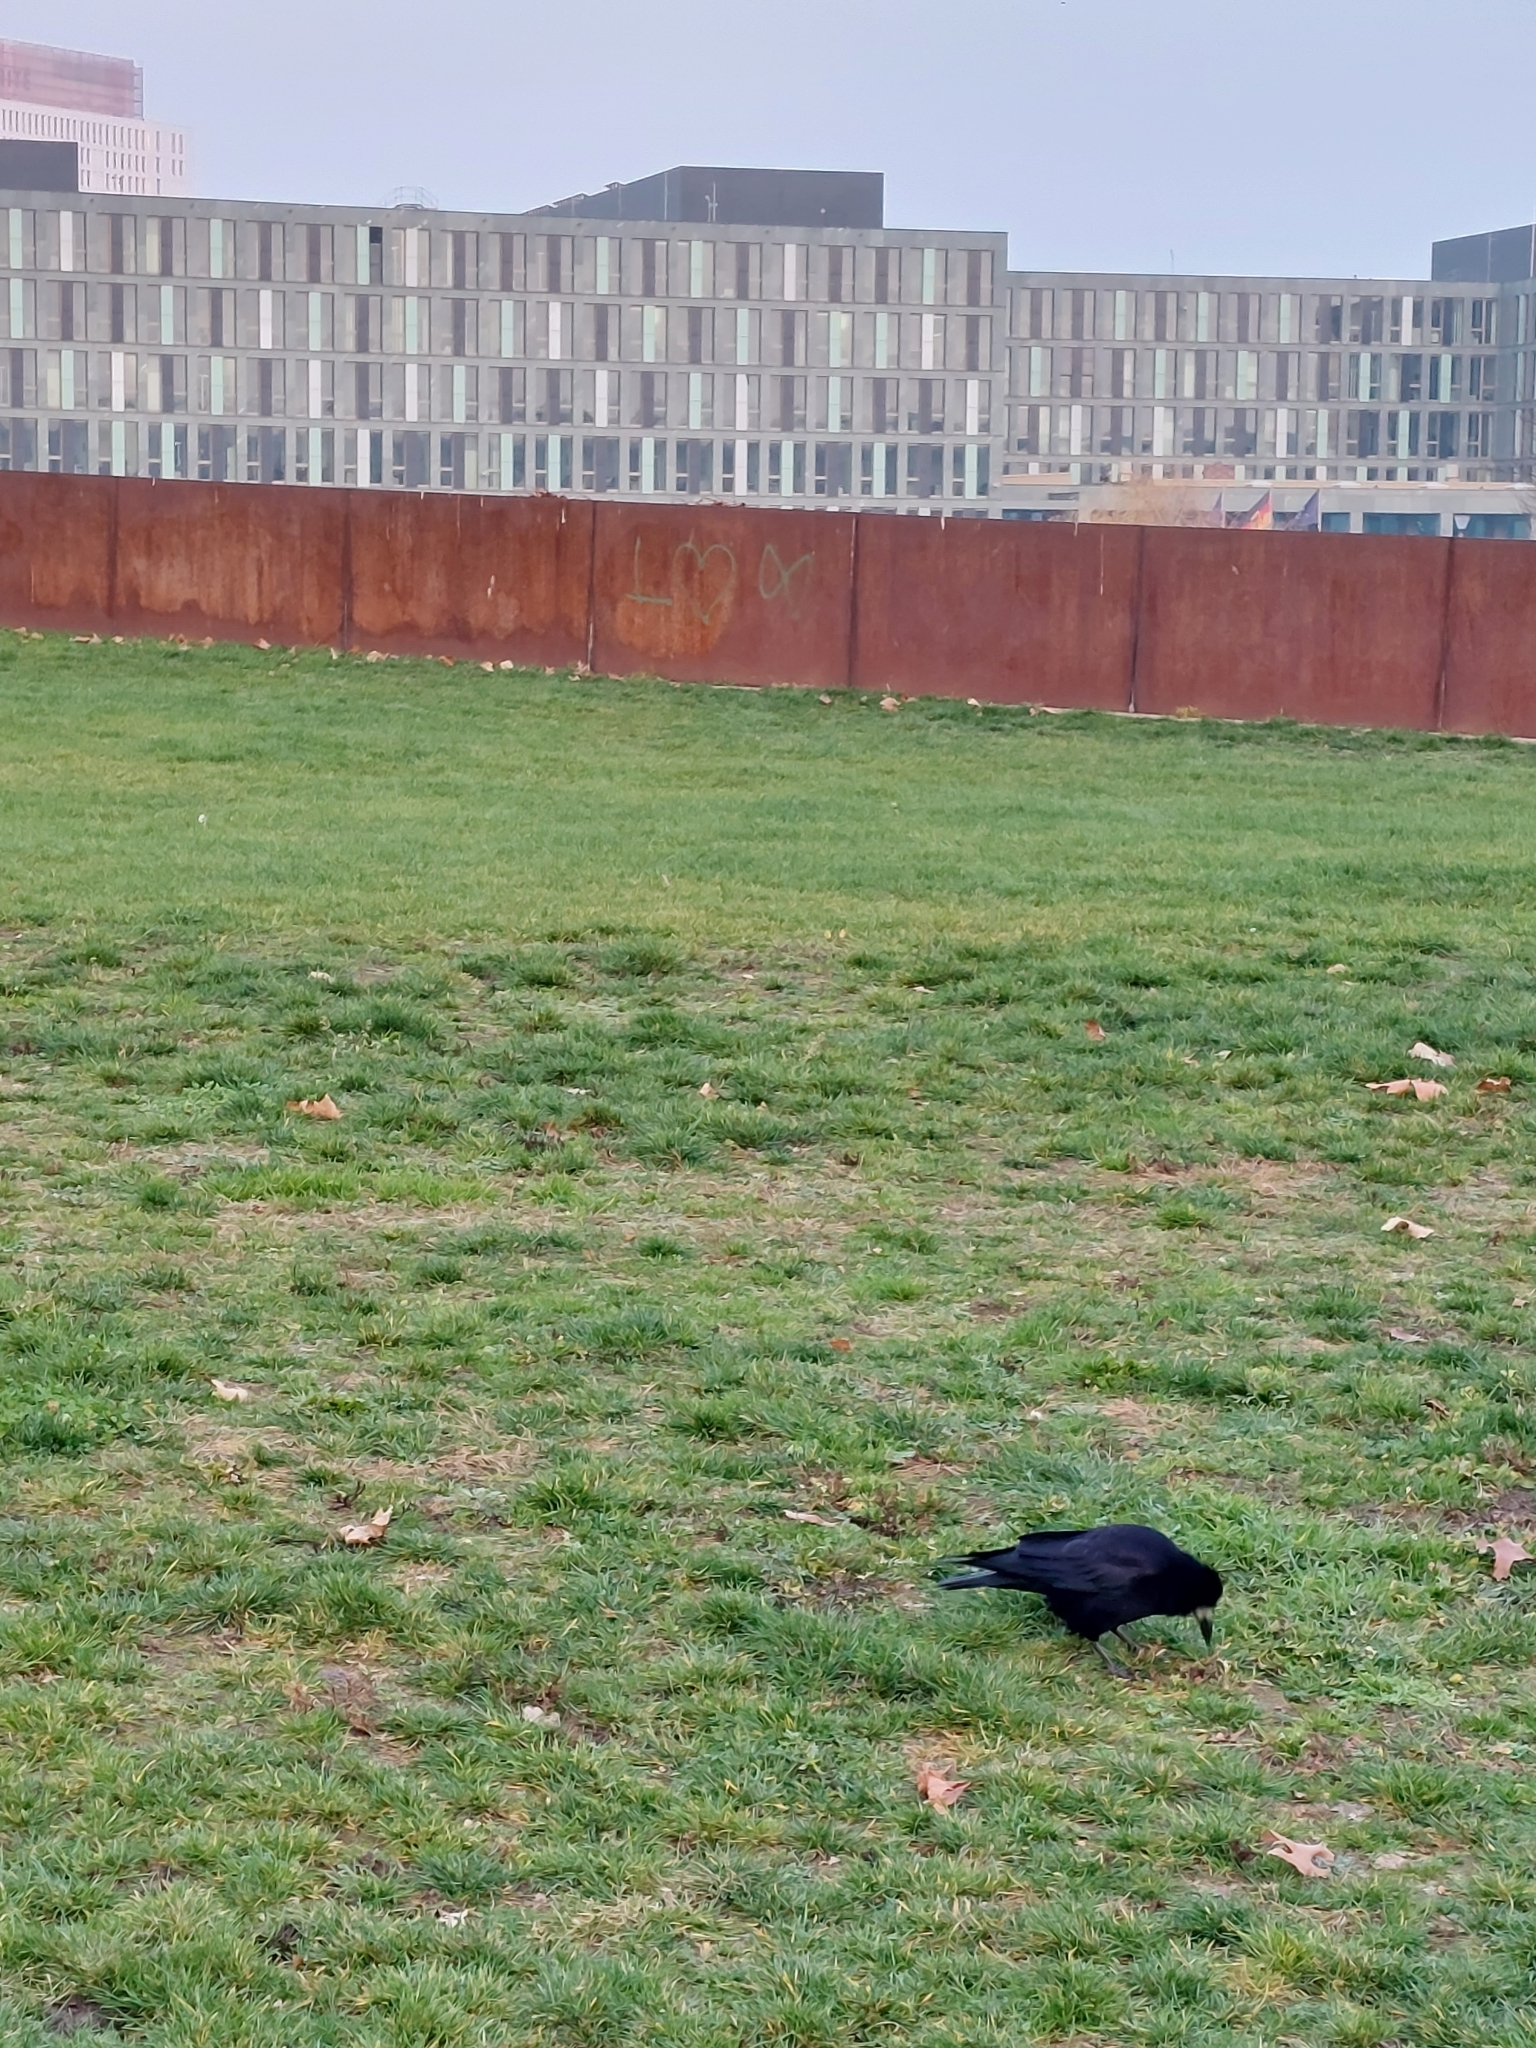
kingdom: Animalia
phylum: Chordata
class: Aves
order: Passeriformes
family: Corvidae
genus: Corvus
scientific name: Corvus frugilegus
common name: Rook
